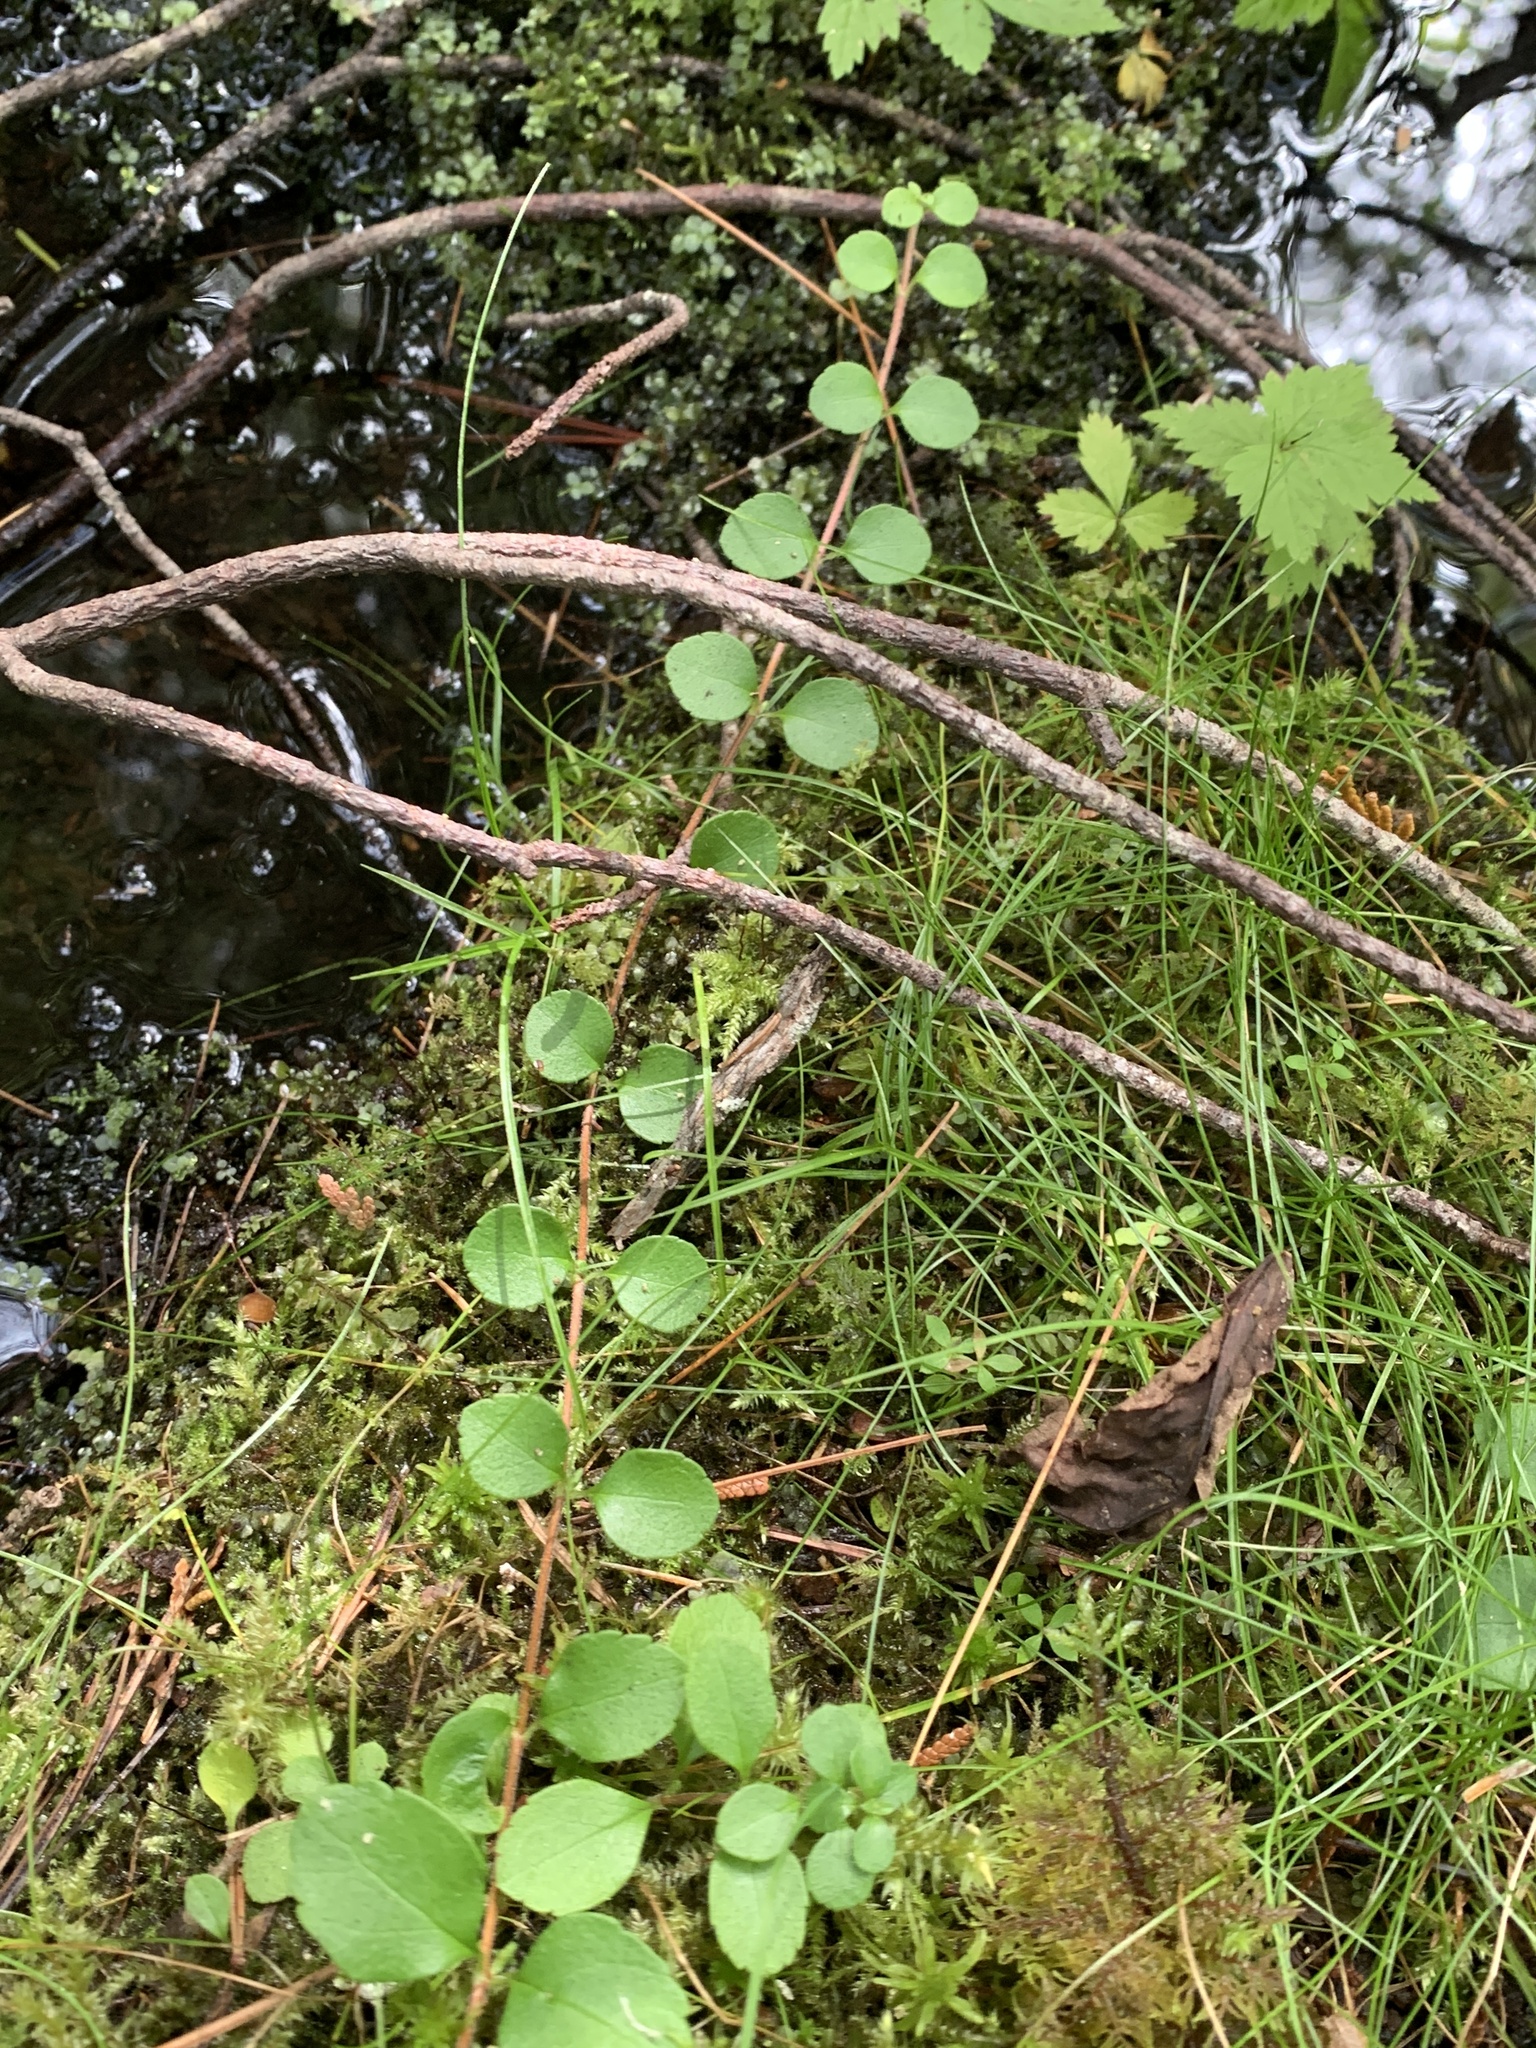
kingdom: Plantae
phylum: Tracheophyta
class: Magnoliopsida
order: Dipsacales
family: Caprifoliaceae
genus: Linnaea
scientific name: Linnaea borealis
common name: Twinflower
